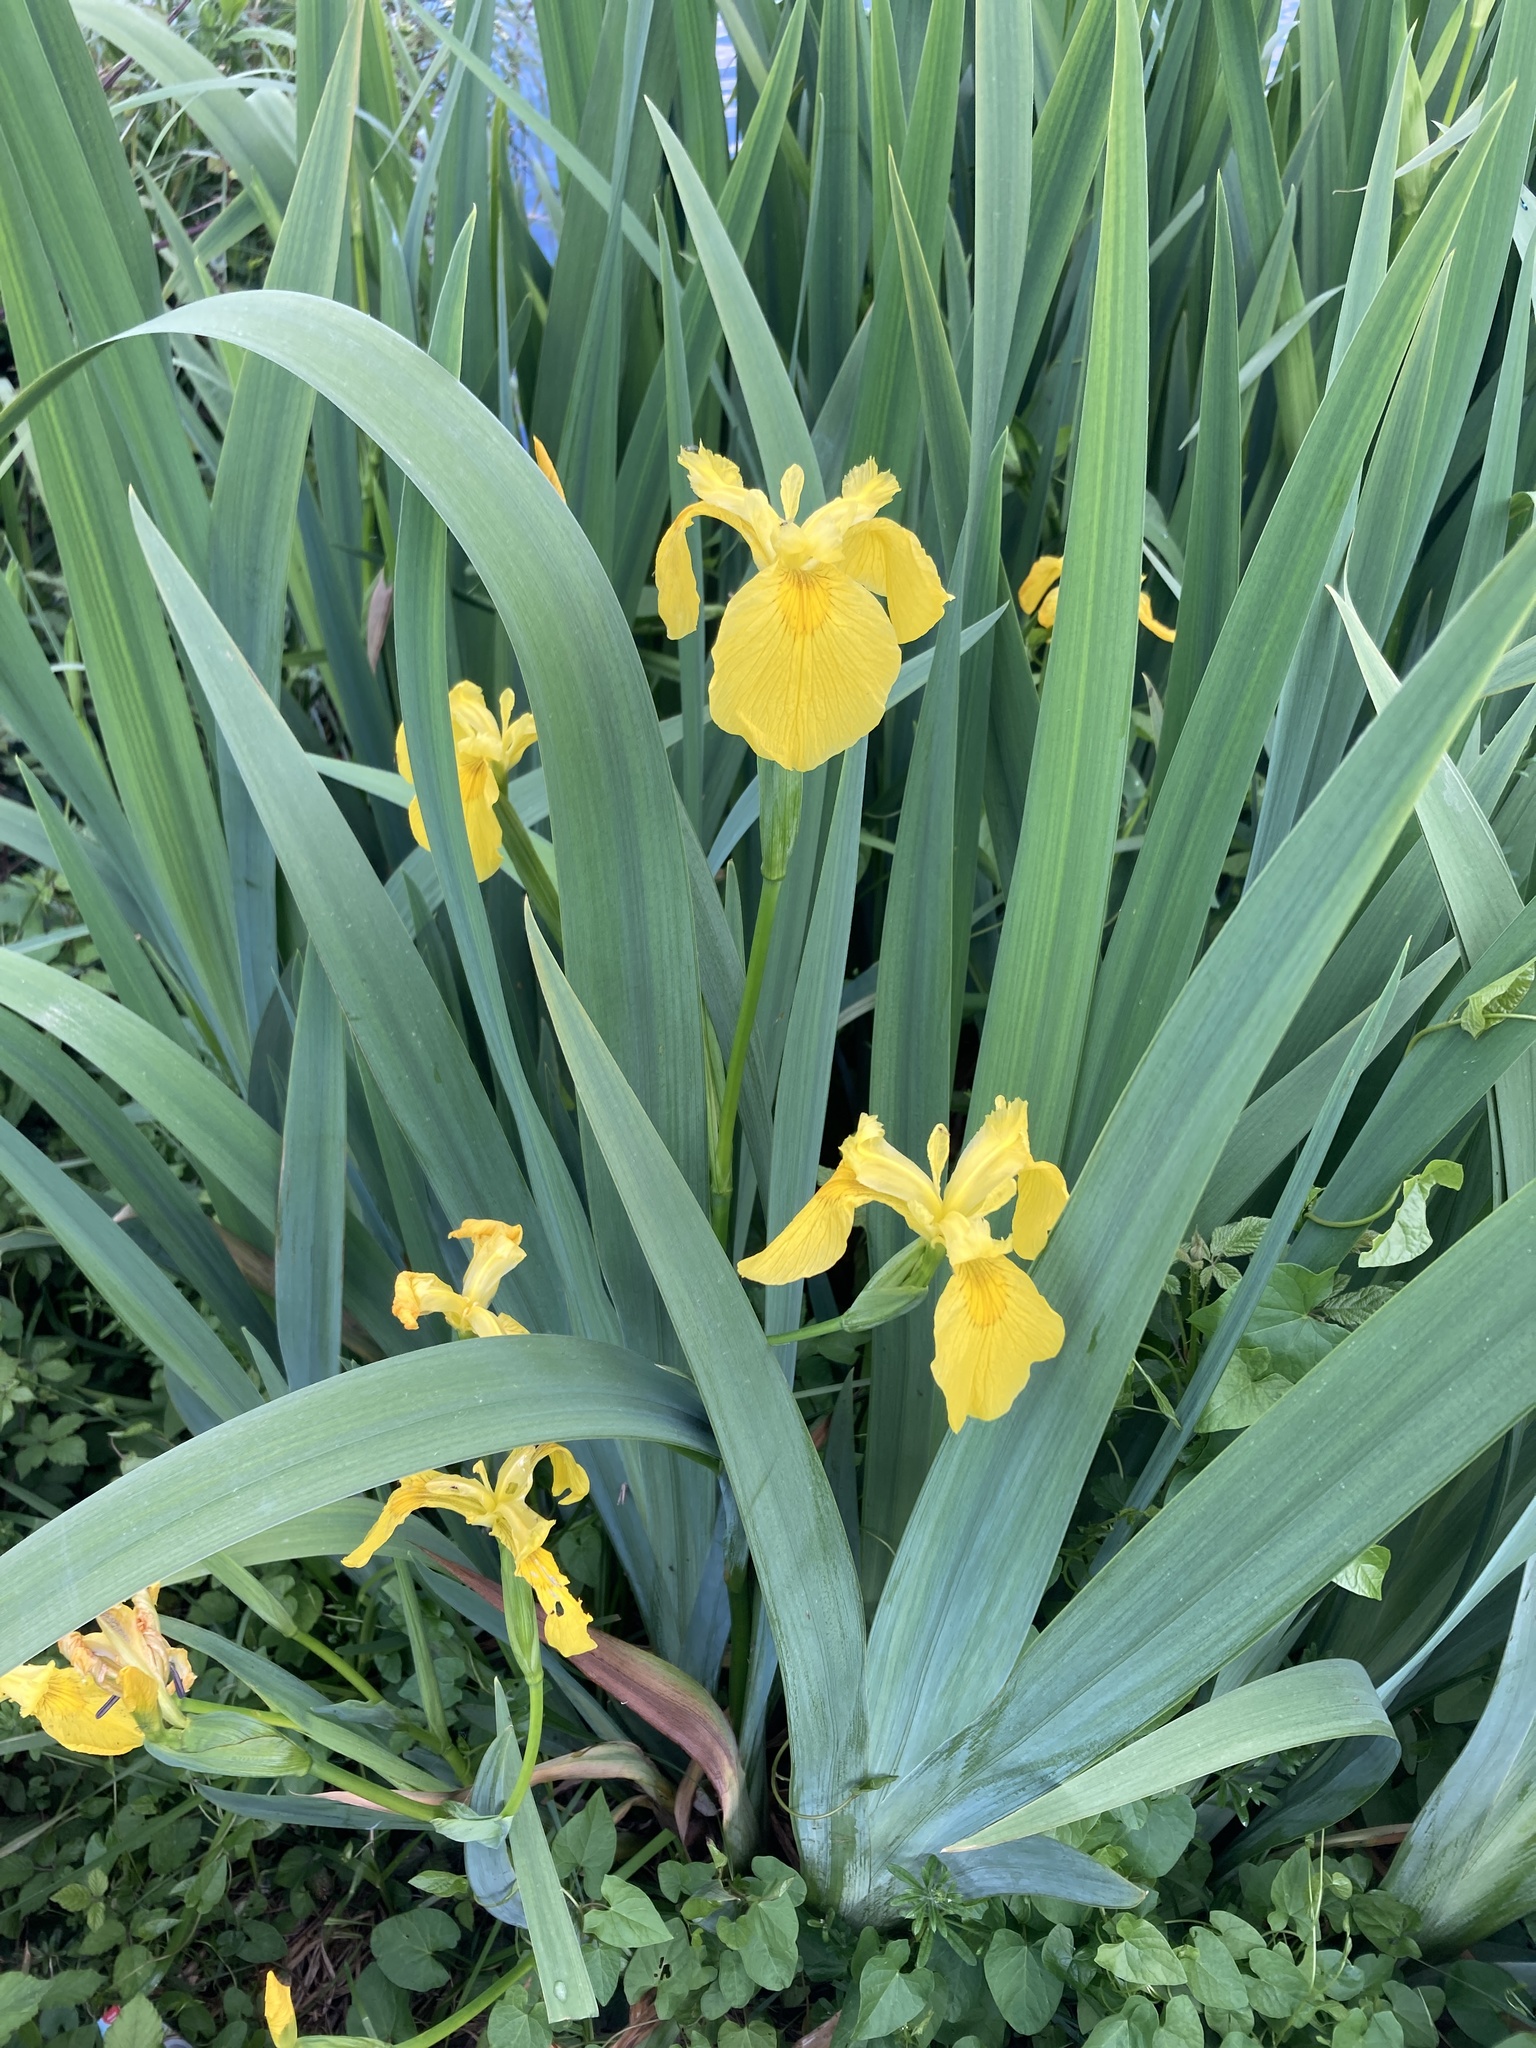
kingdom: Plantae
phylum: Tracheophyta
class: Liliopsida
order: Asparagales
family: Iridaceae
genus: Iris
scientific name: Iris pseudacorus
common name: Yellow flag
